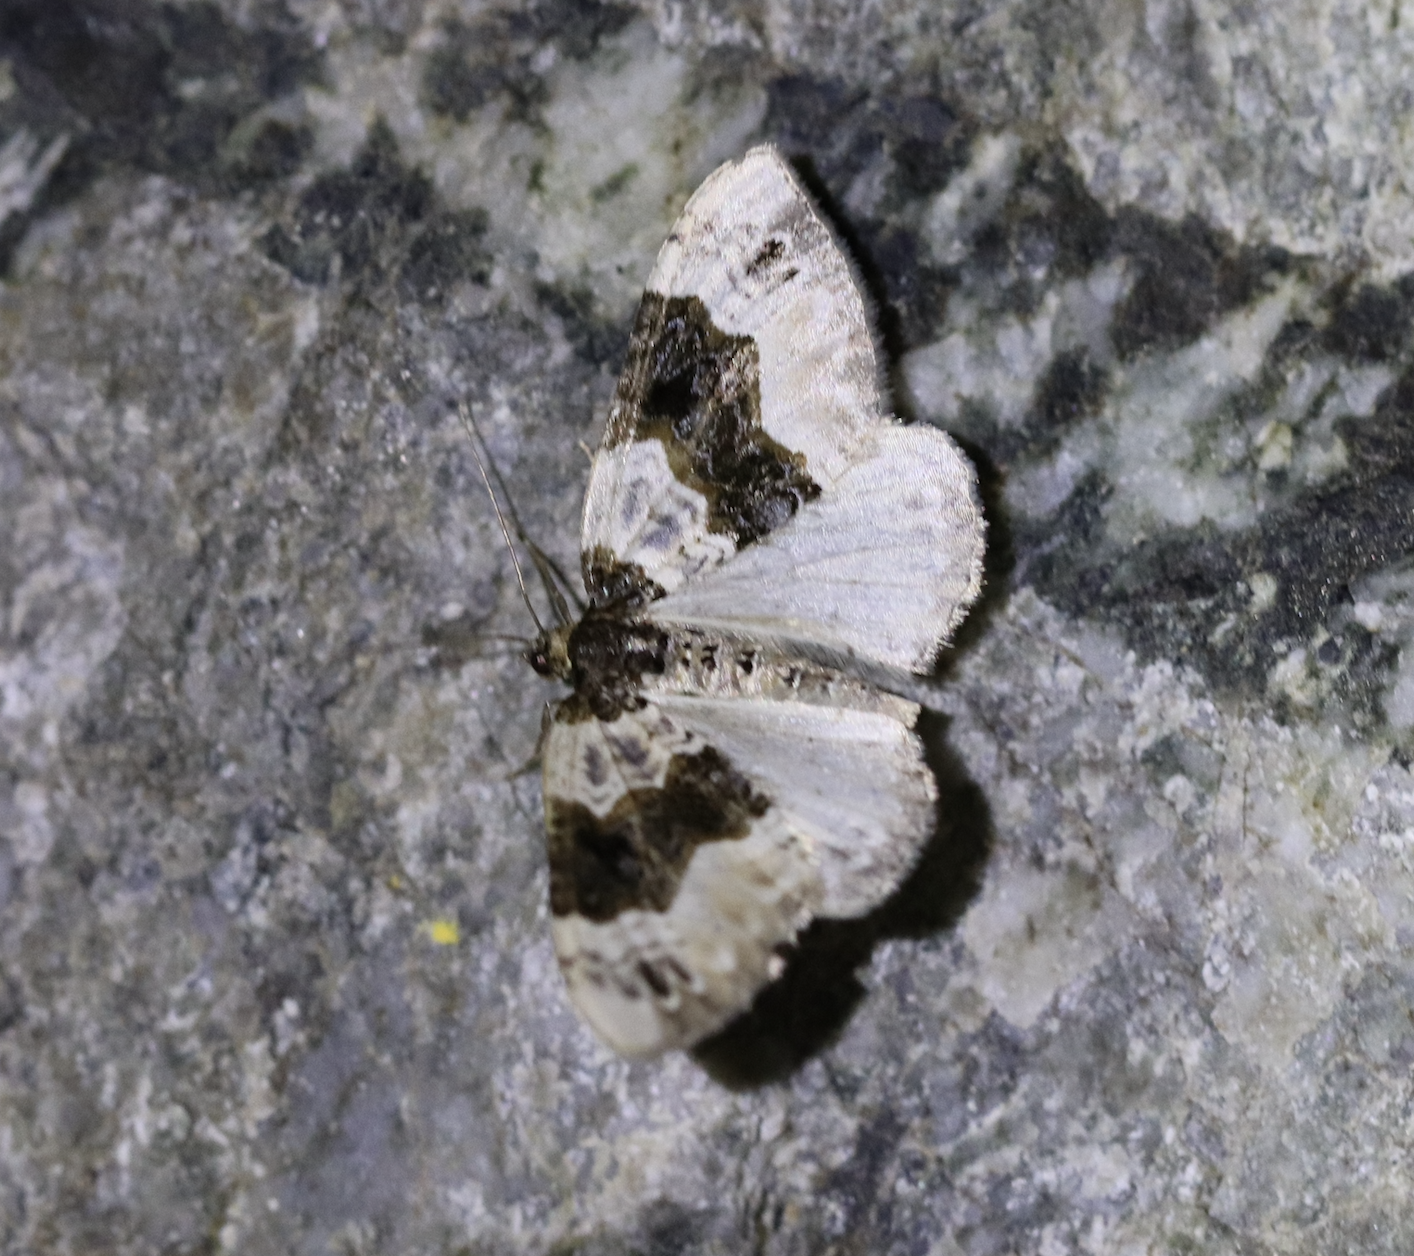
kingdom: Animalia
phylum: Arthropoda
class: Insecta
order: Lepidoptera
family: Geometridae
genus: Cosmorhoe
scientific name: Cosmorhoe ocellata
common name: Purple bar
